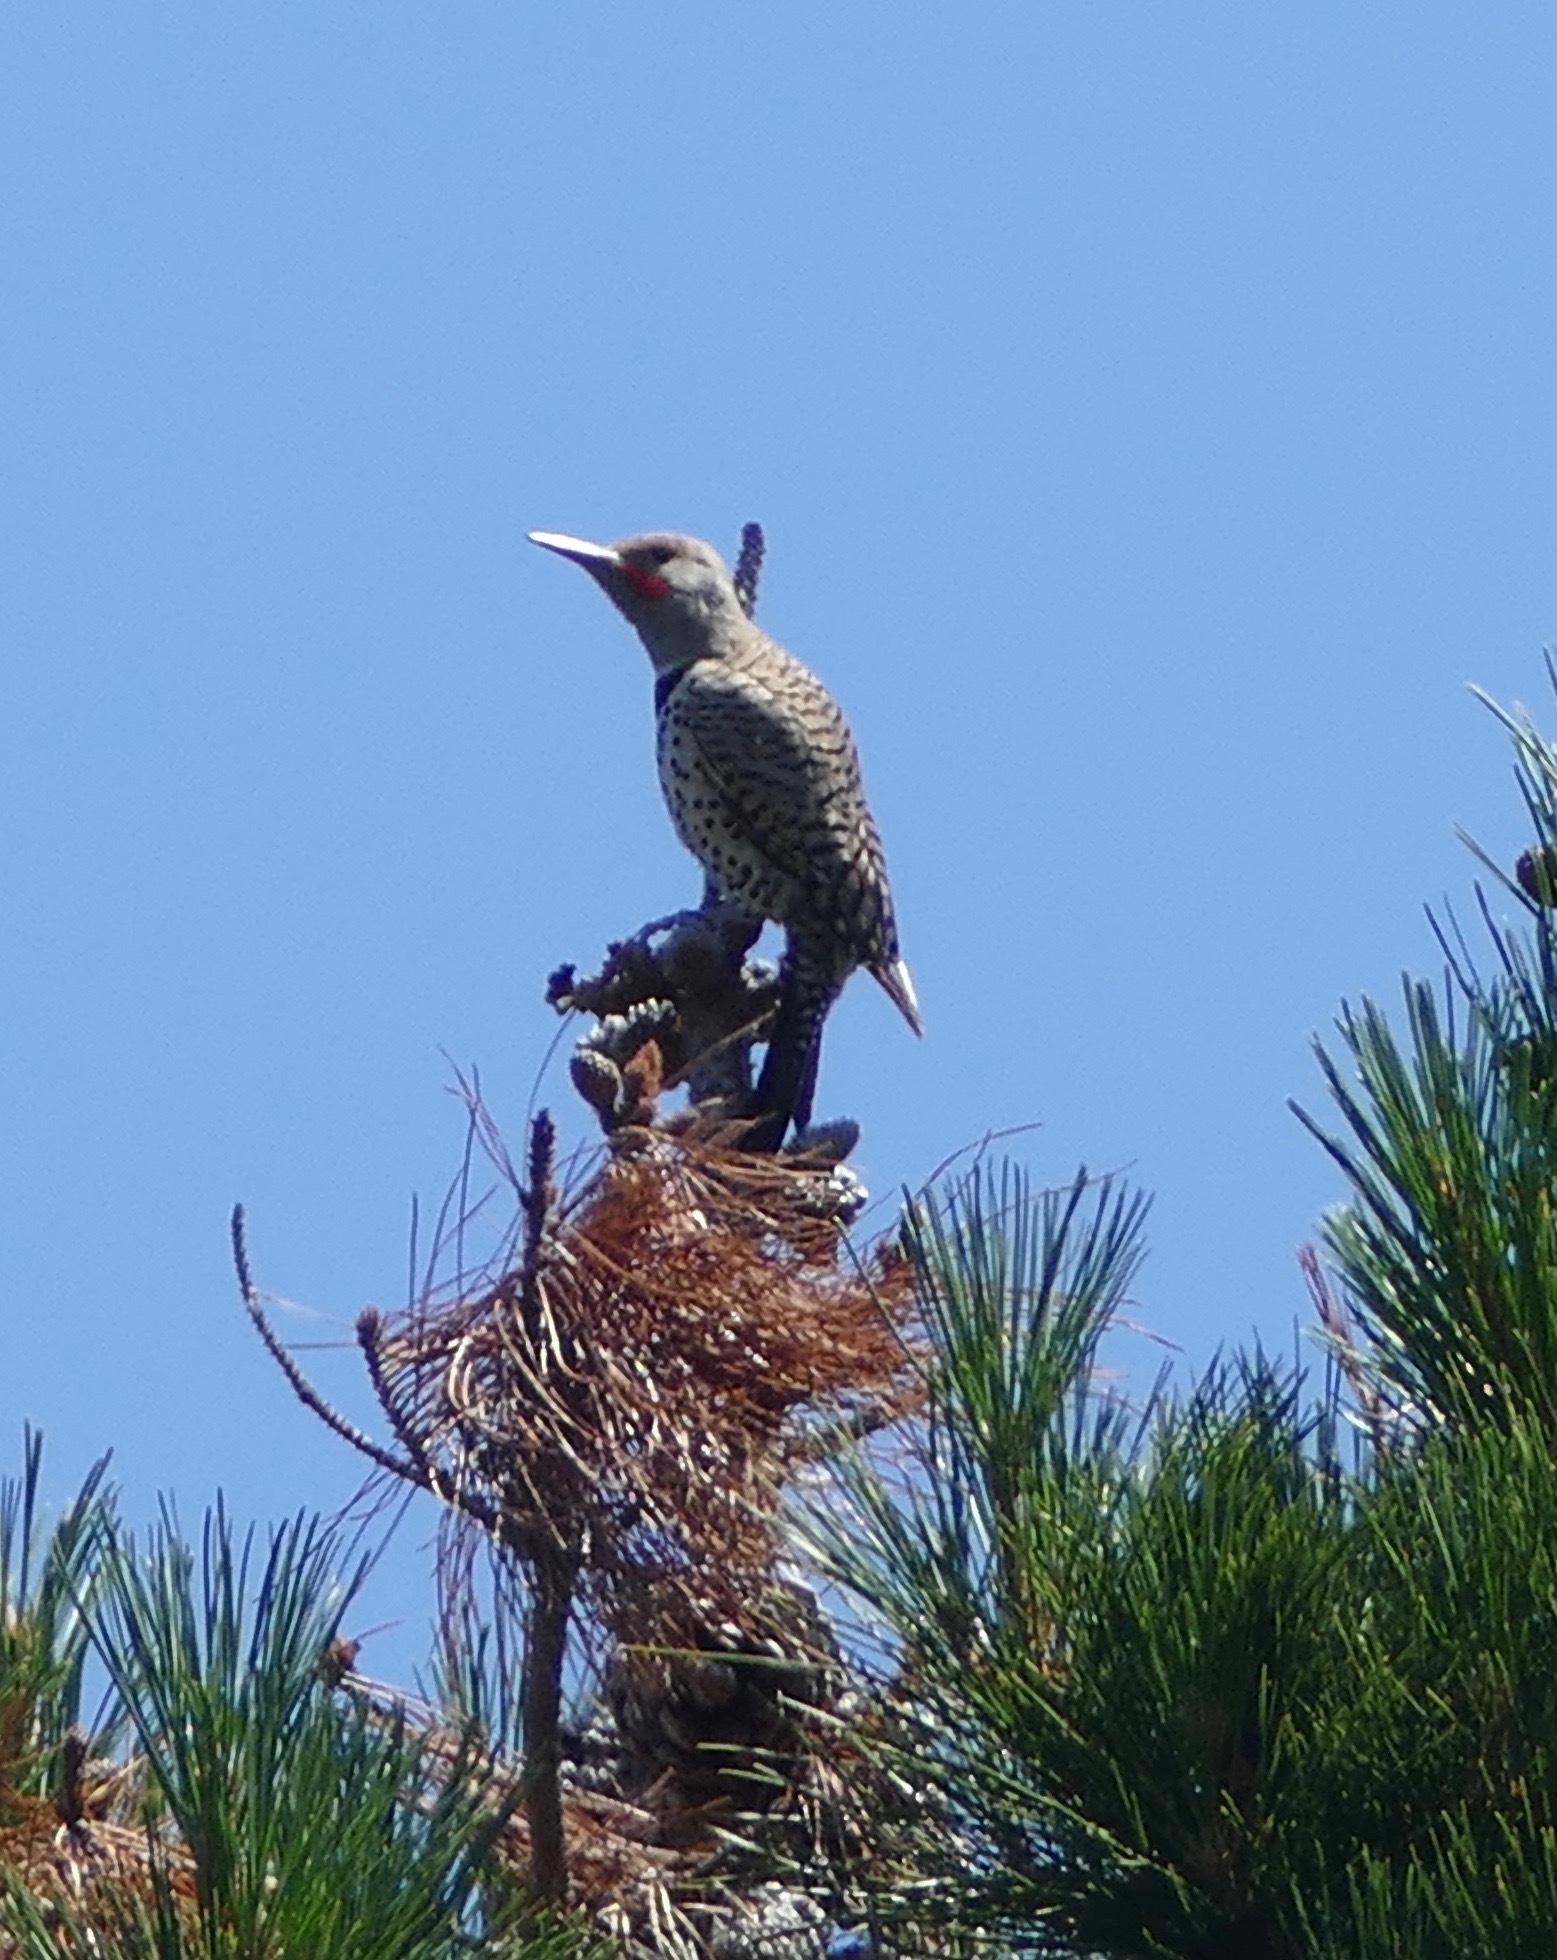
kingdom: Animalia
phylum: Chordata
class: Aves
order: Piciformes
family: Picidae
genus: Colaptes
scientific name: Colaptes auratus
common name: Northern flicker
